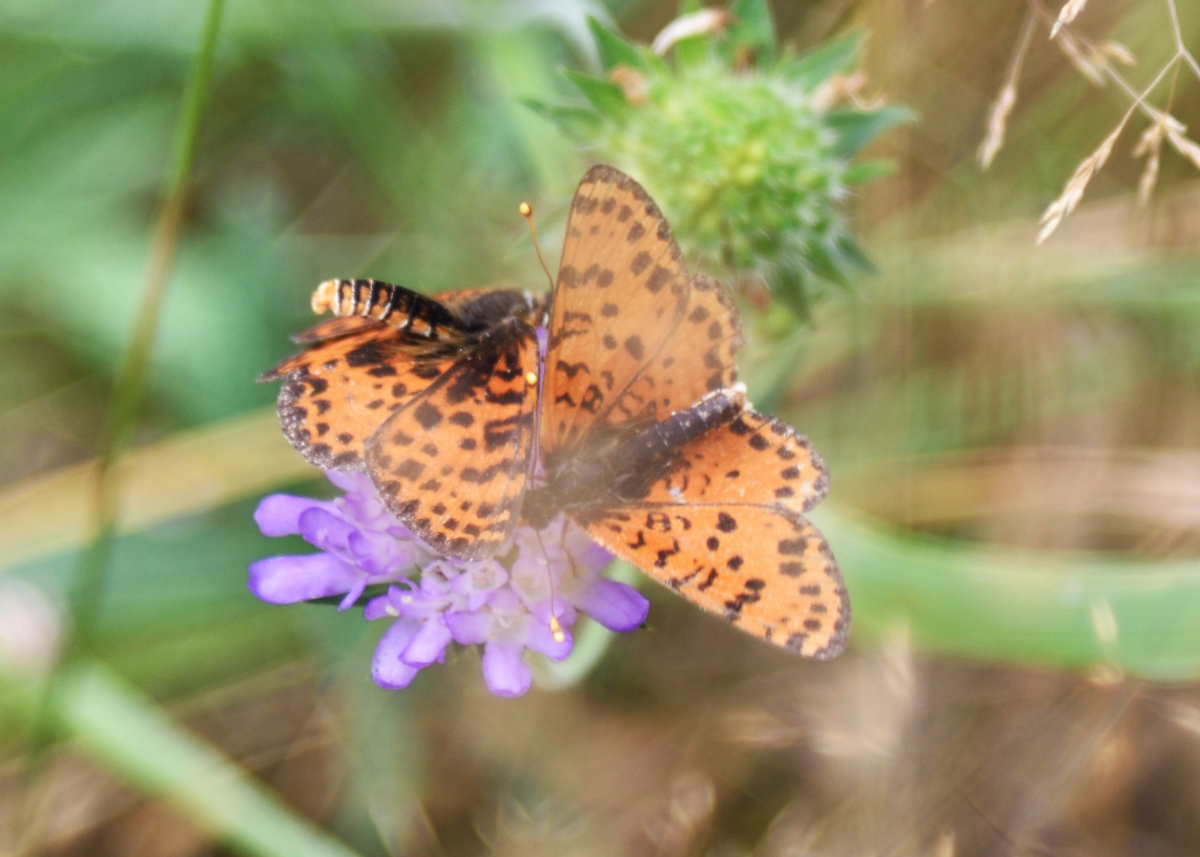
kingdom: Animalia
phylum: Arthropoda
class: Insecta
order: Lepidoptera
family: Nymphalidae
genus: Melitaea
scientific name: Melitaea didyma
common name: Spotted fritillary
